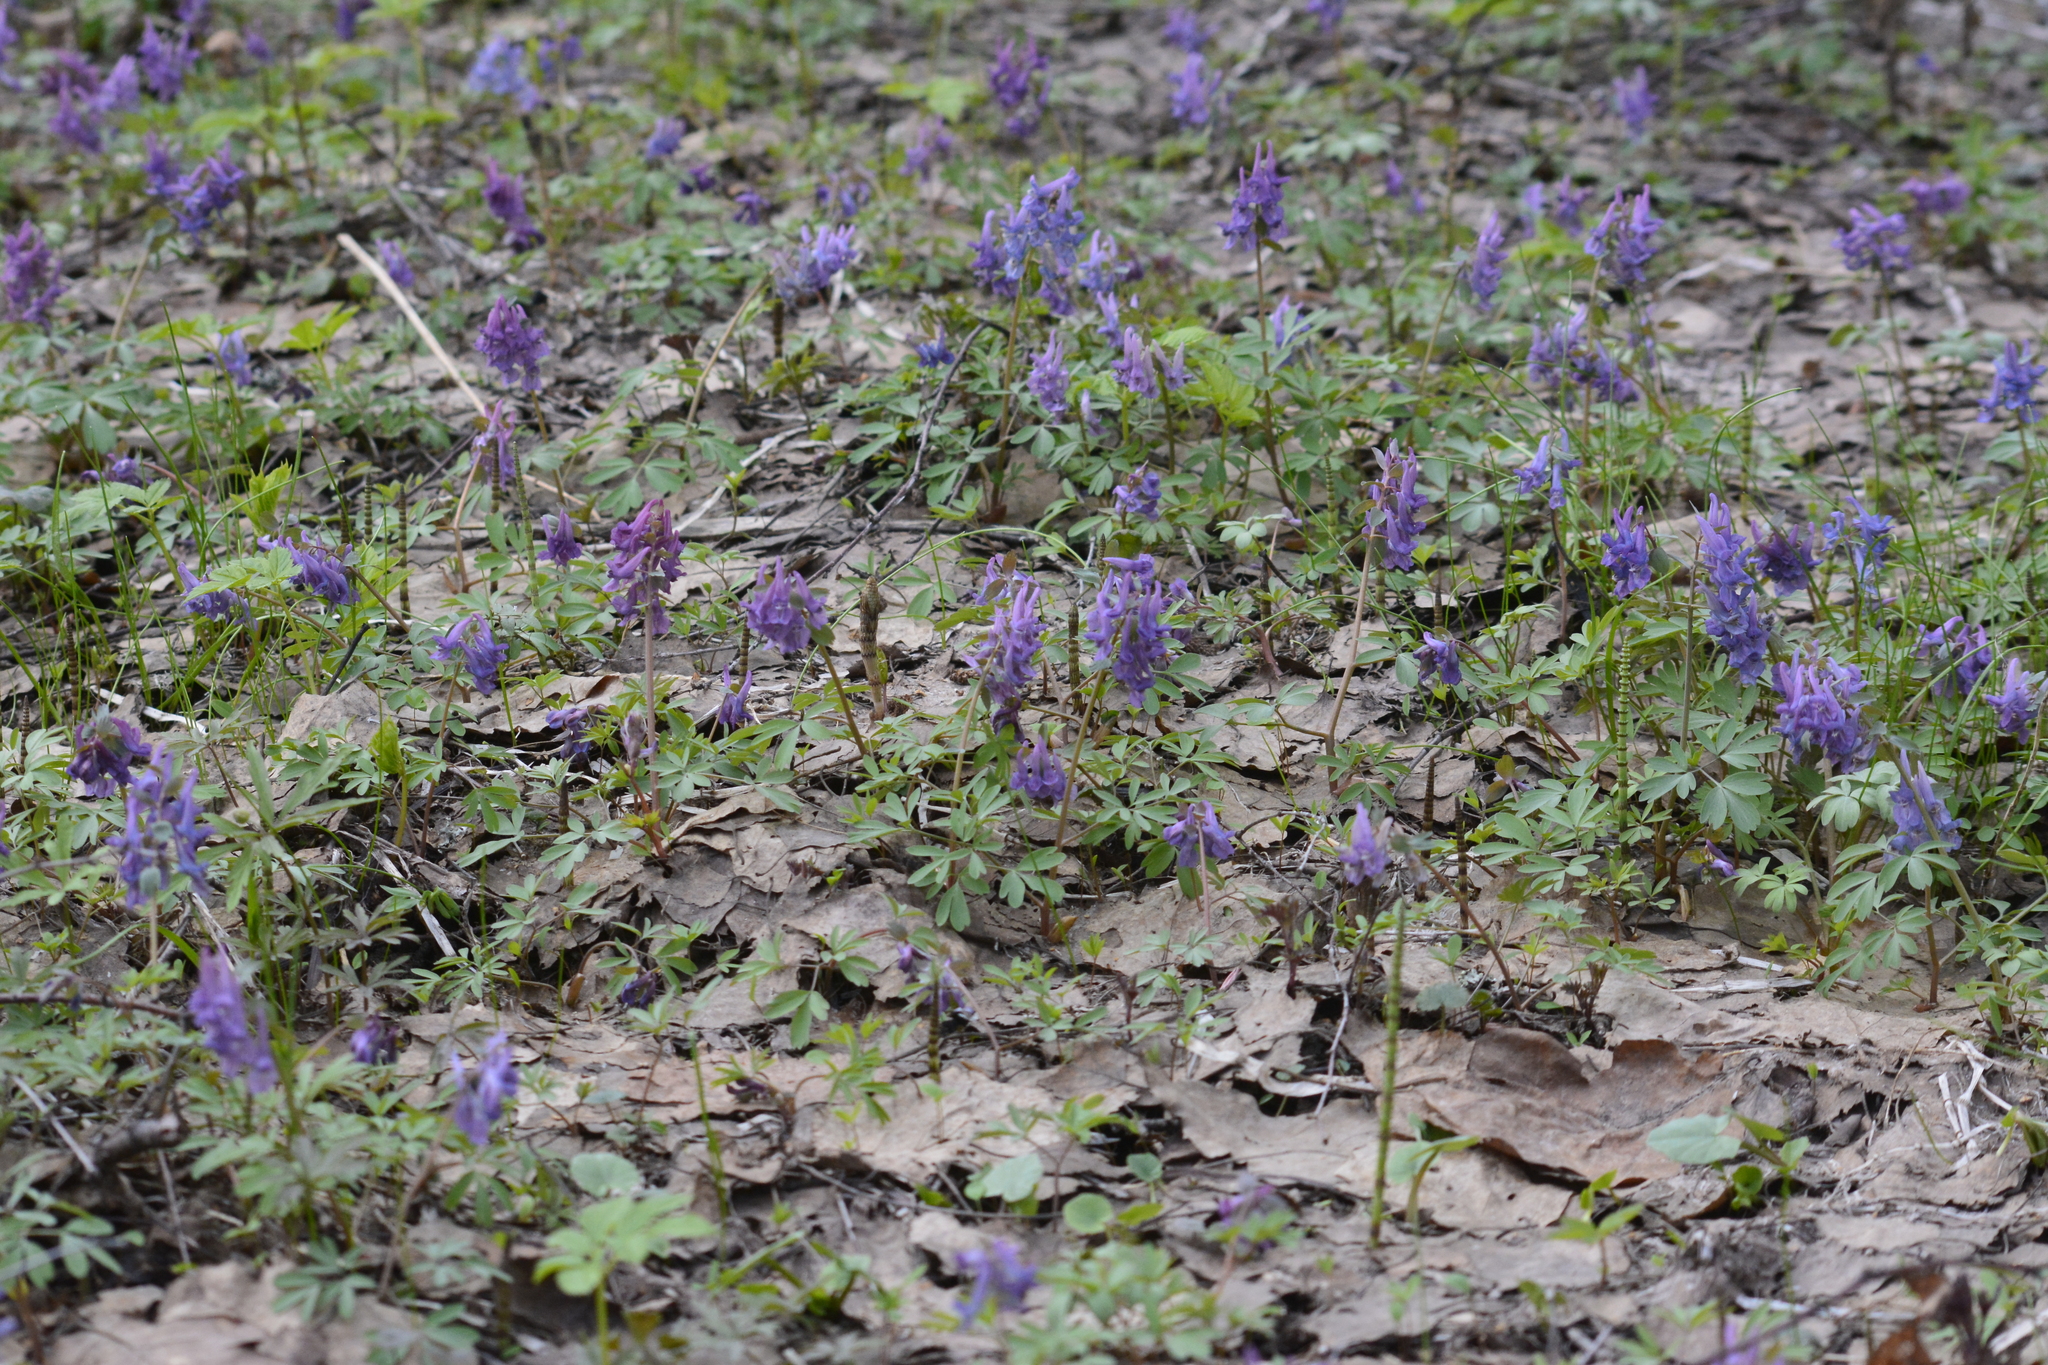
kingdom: Plantae
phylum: Tracheophyta
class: Magnoliopsida
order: Ranunculales
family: Papaveraceae
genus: Corydalis
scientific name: Corydalis solida
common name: Bird-in-a-bush
